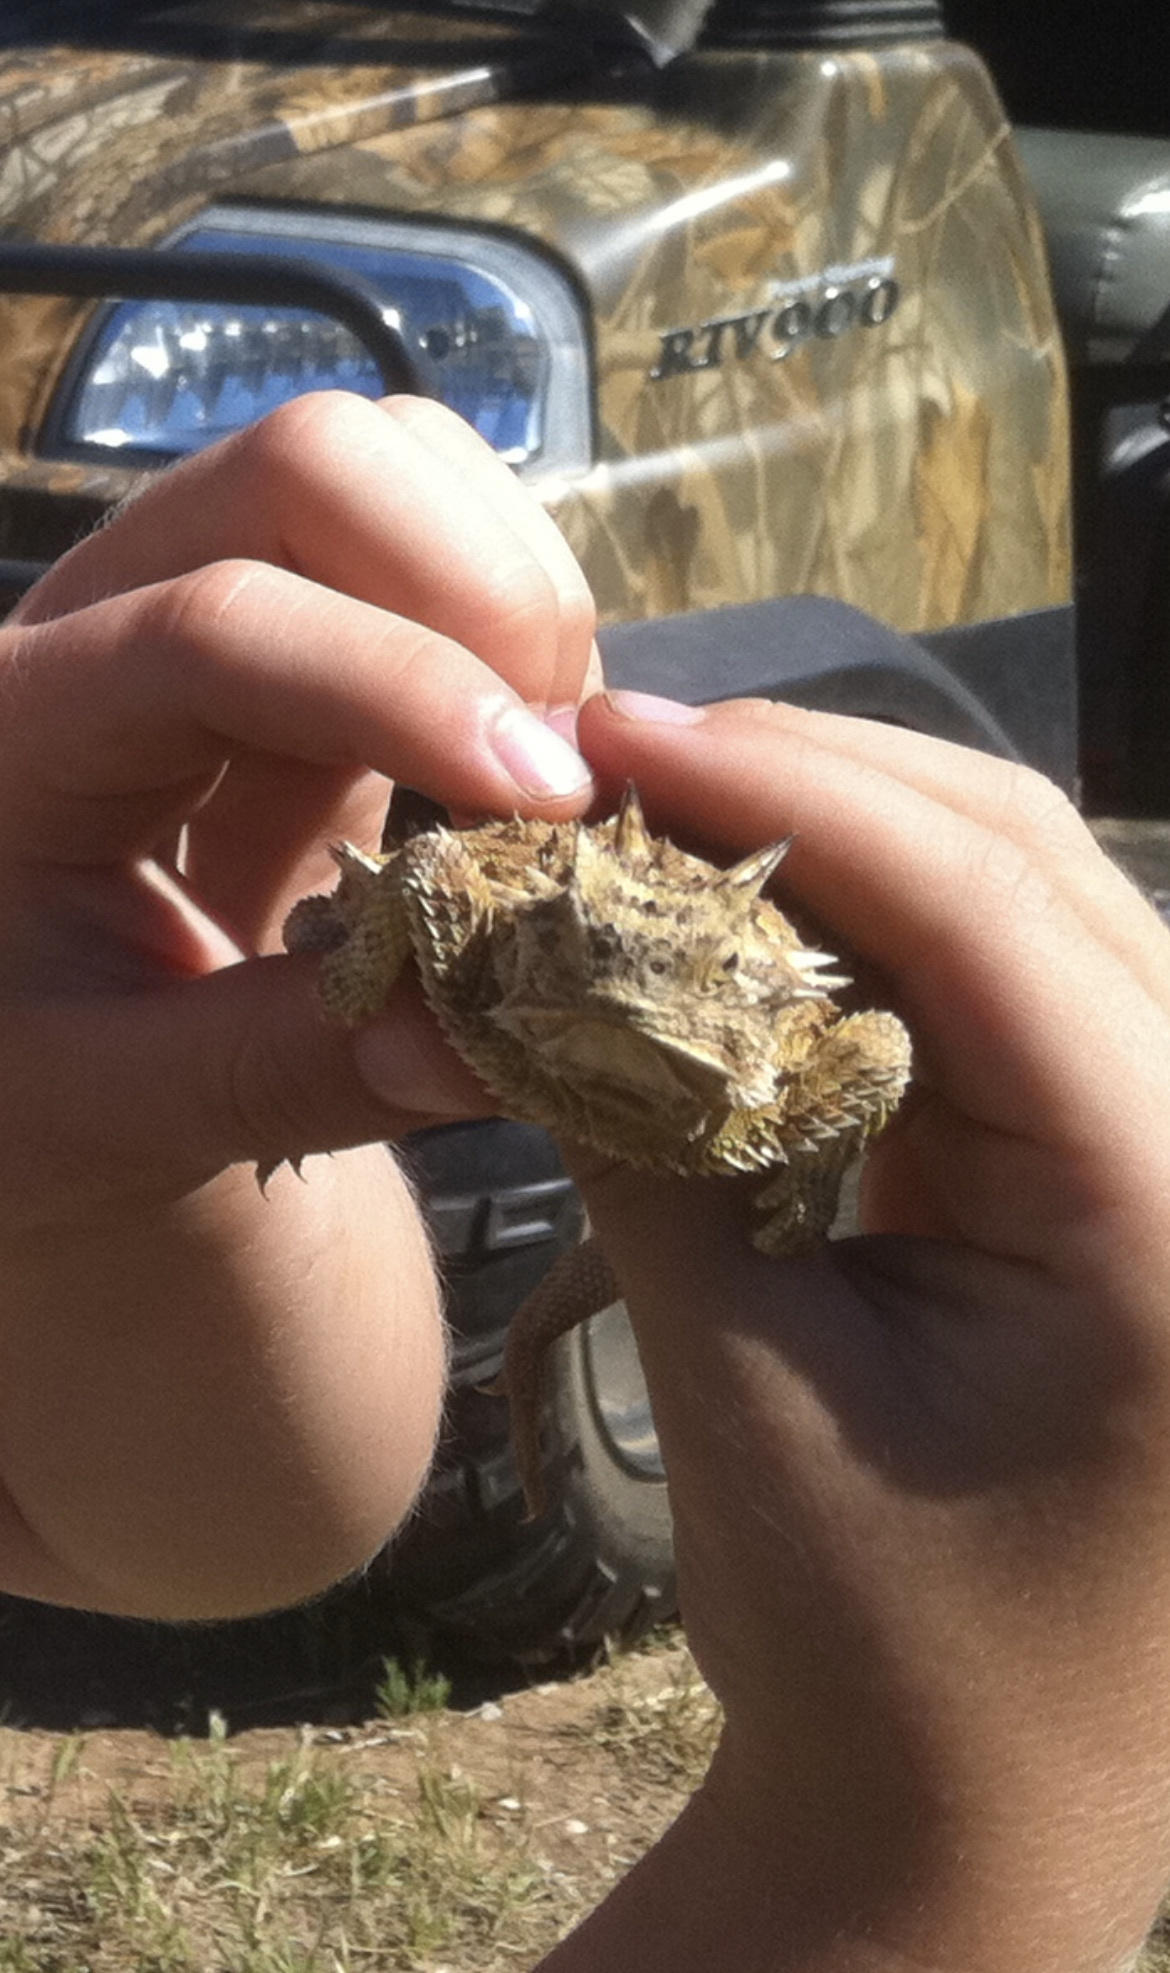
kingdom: Animalia
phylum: Chordata
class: Squamata
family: Phrynosomatidae
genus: Phrynosoma
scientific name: Phrynosoma cornutum
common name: Texas horned lizard
